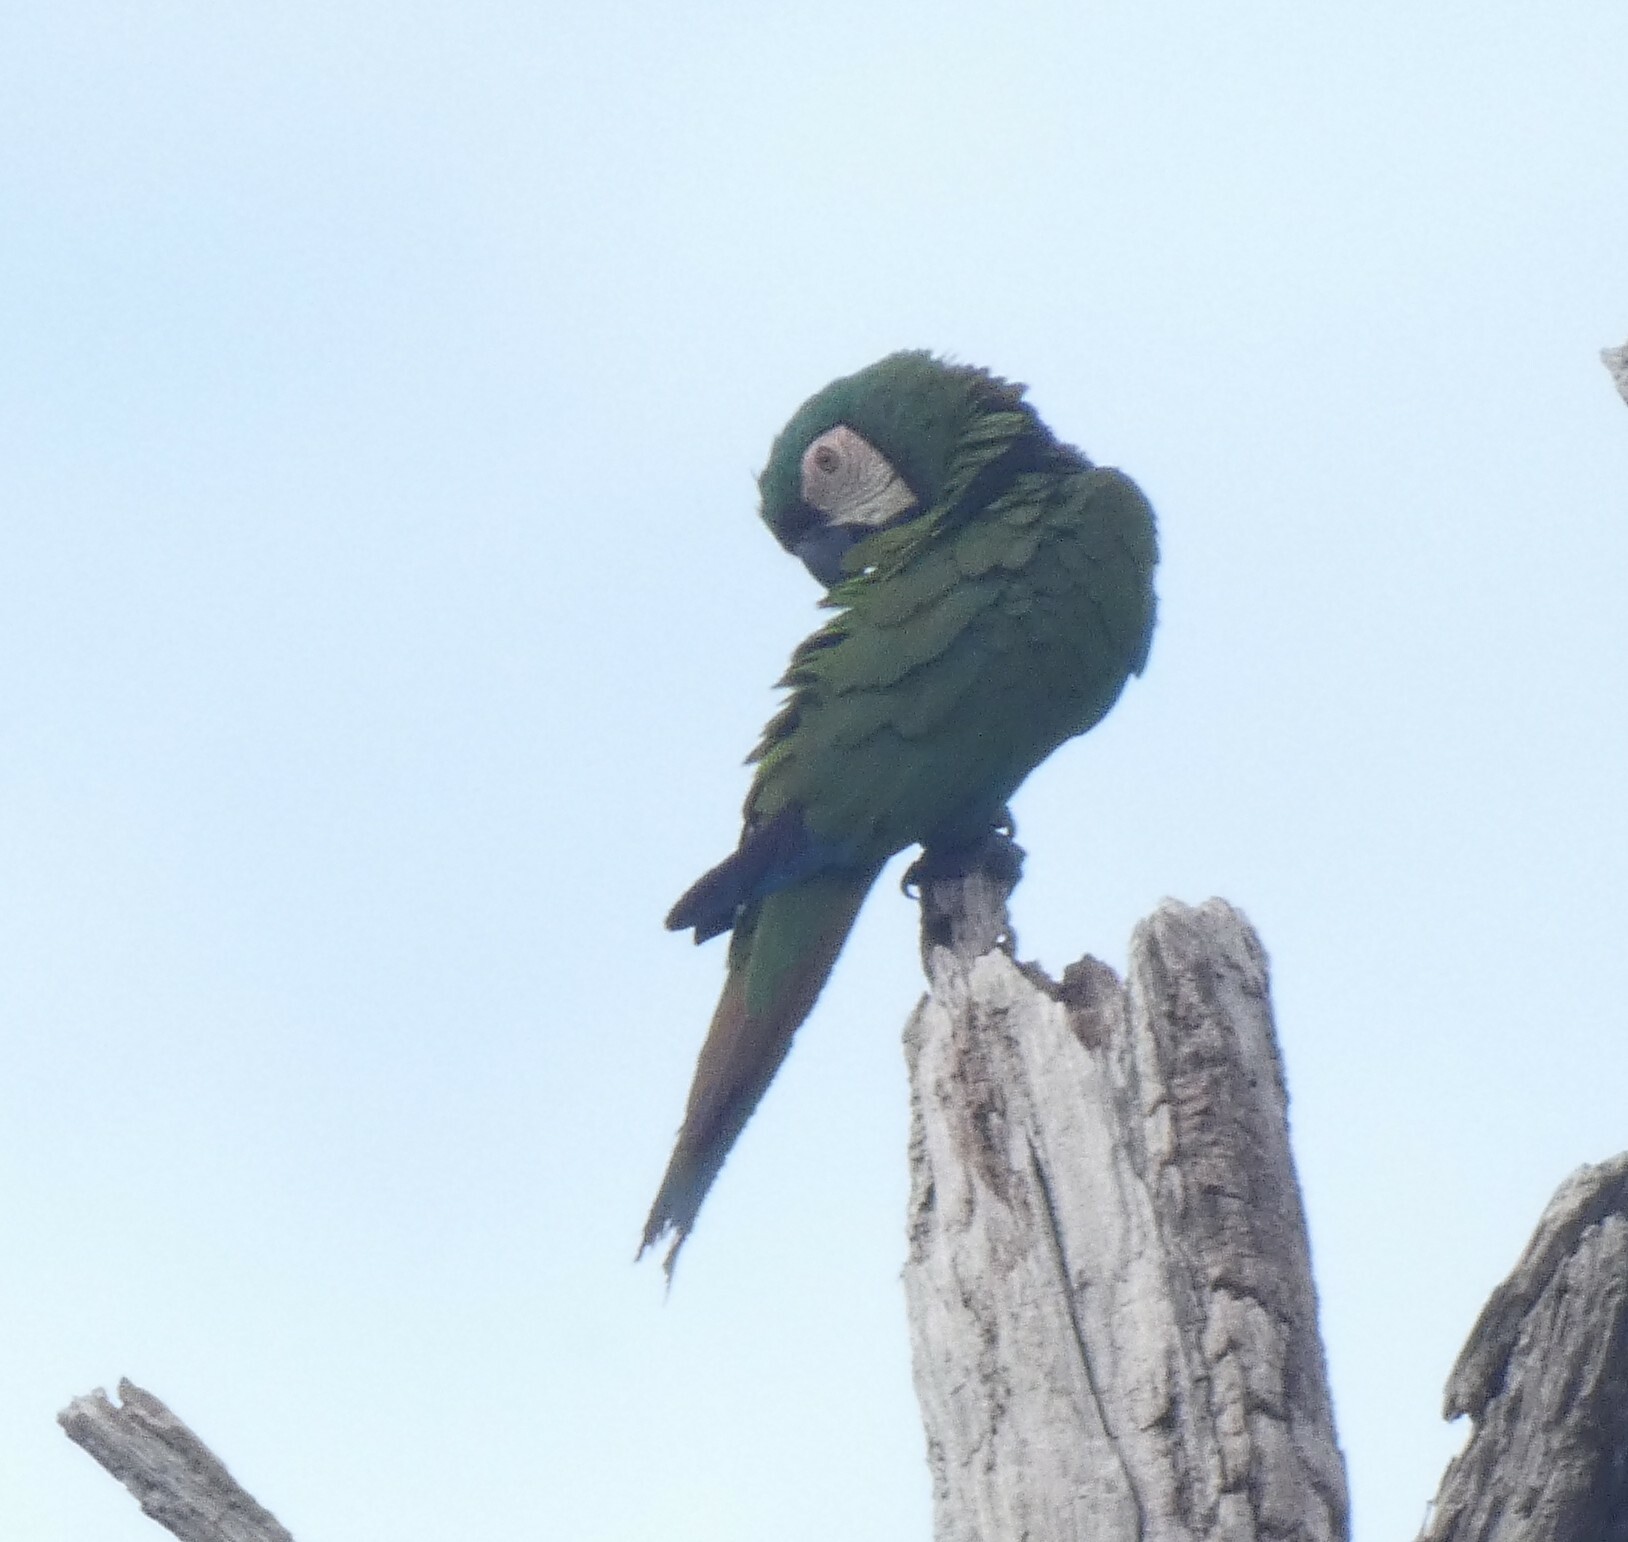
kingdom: Animalia
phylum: Chordata
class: Aves
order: Psittaciformes
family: Psittacidae
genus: Ara
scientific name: Ara severus
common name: Chestnut-fronted macaw
